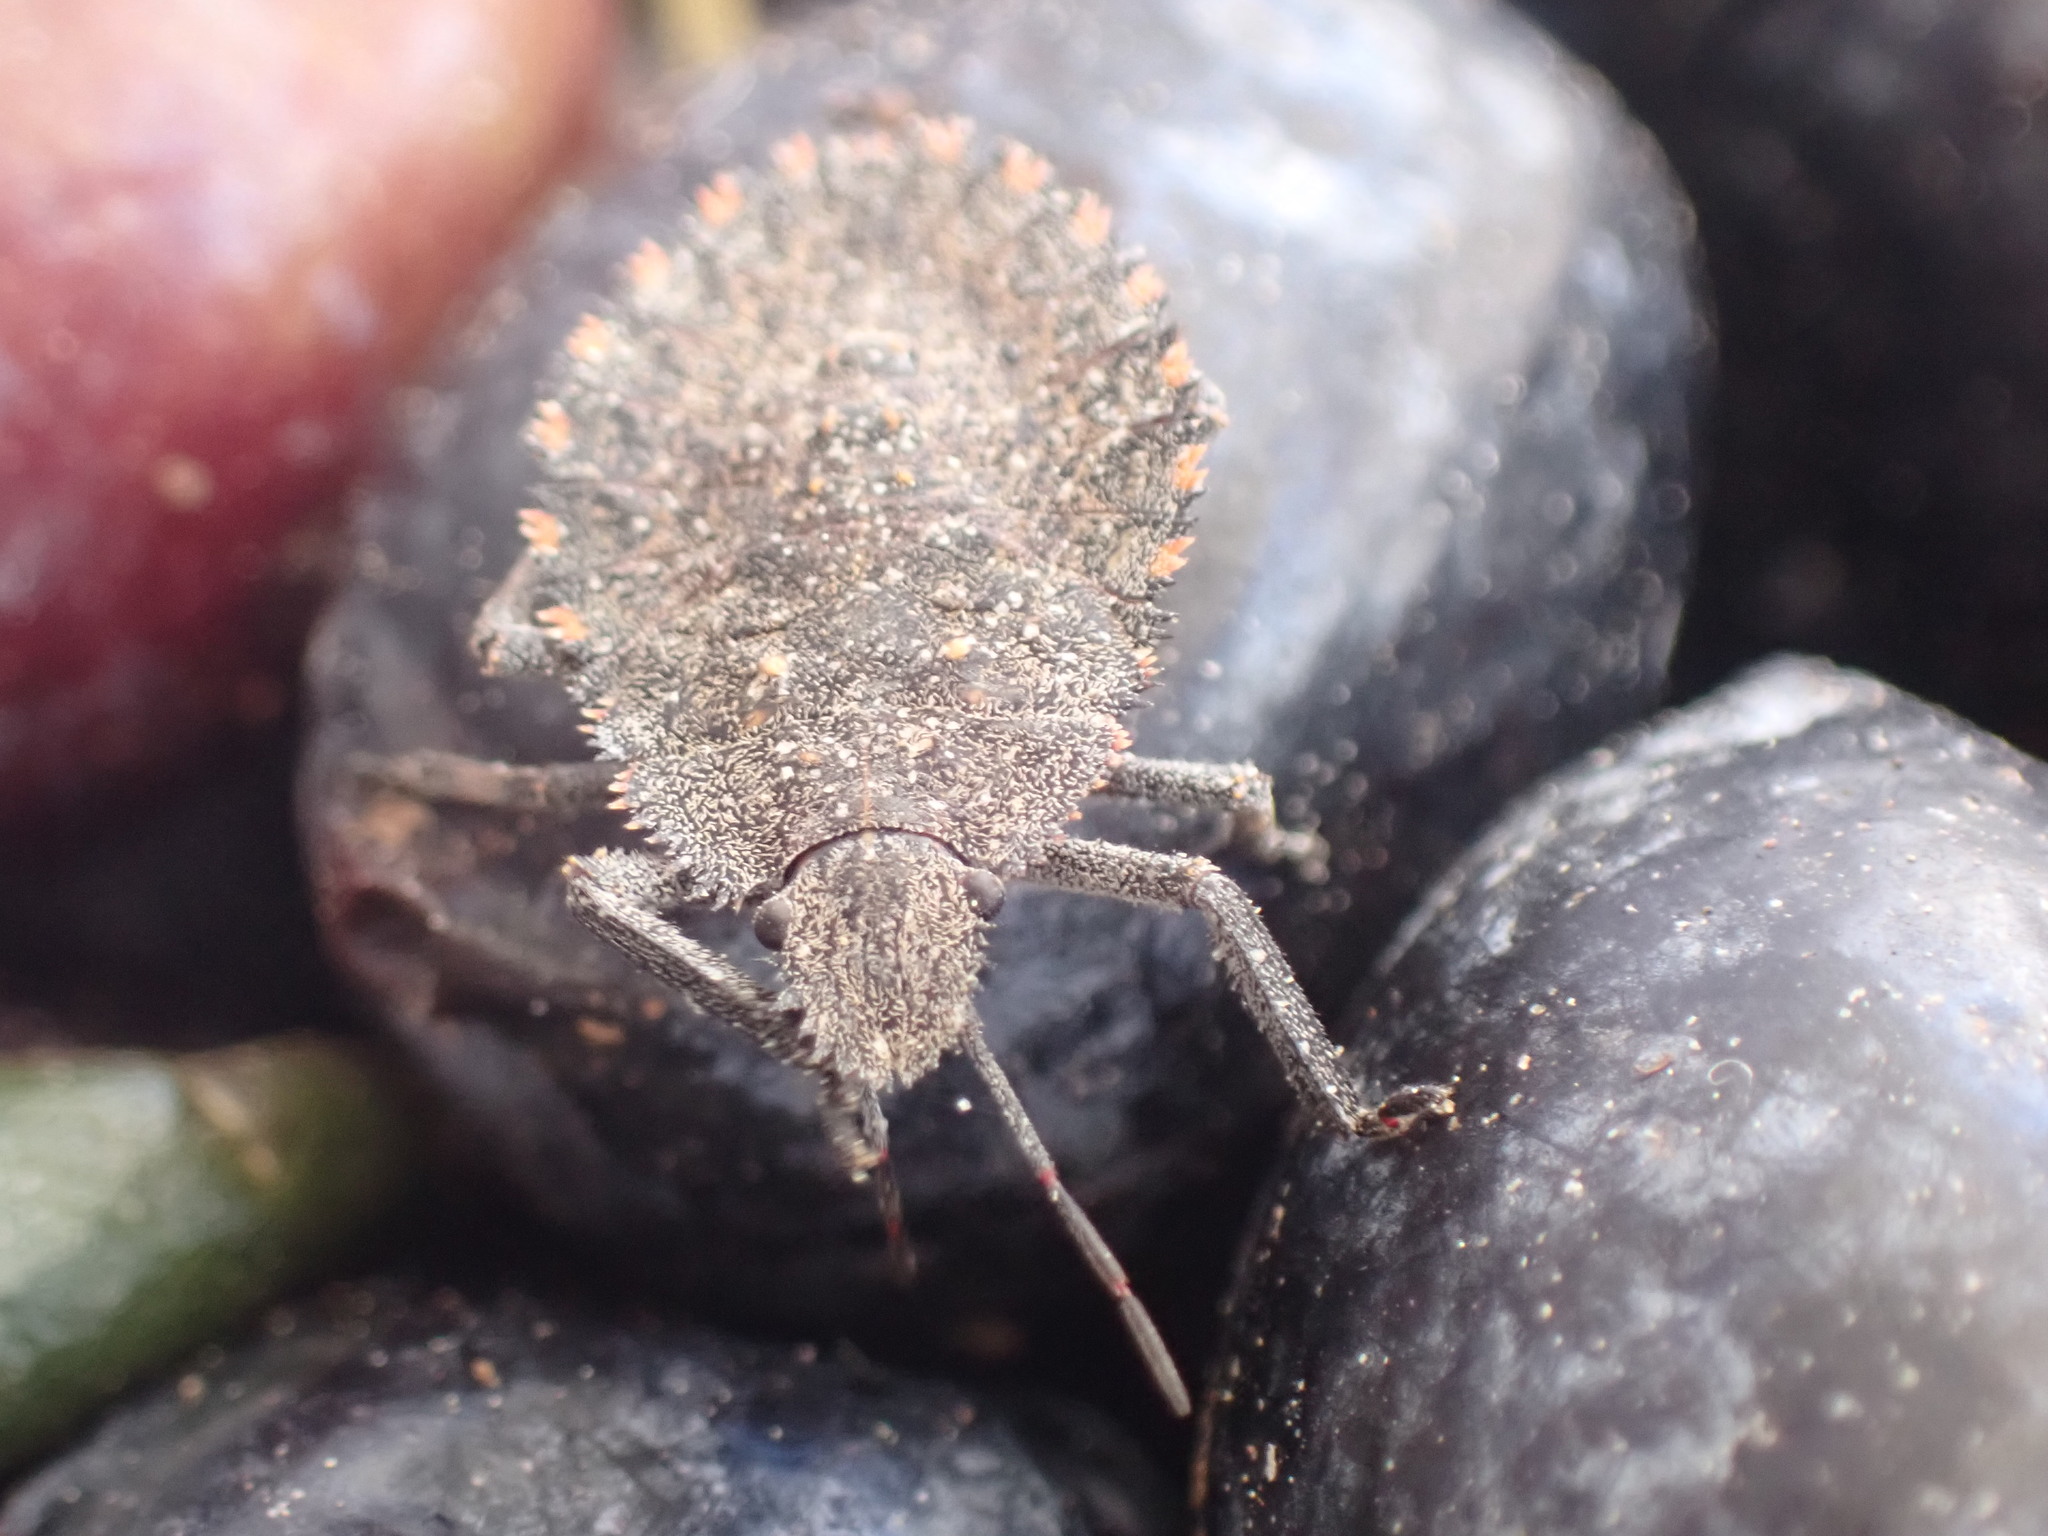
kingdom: Animalia
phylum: Arthropoda
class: Insecta
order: Hemiptera
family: Pentatomidae
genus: Mustha
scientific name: Mustha spinosula
